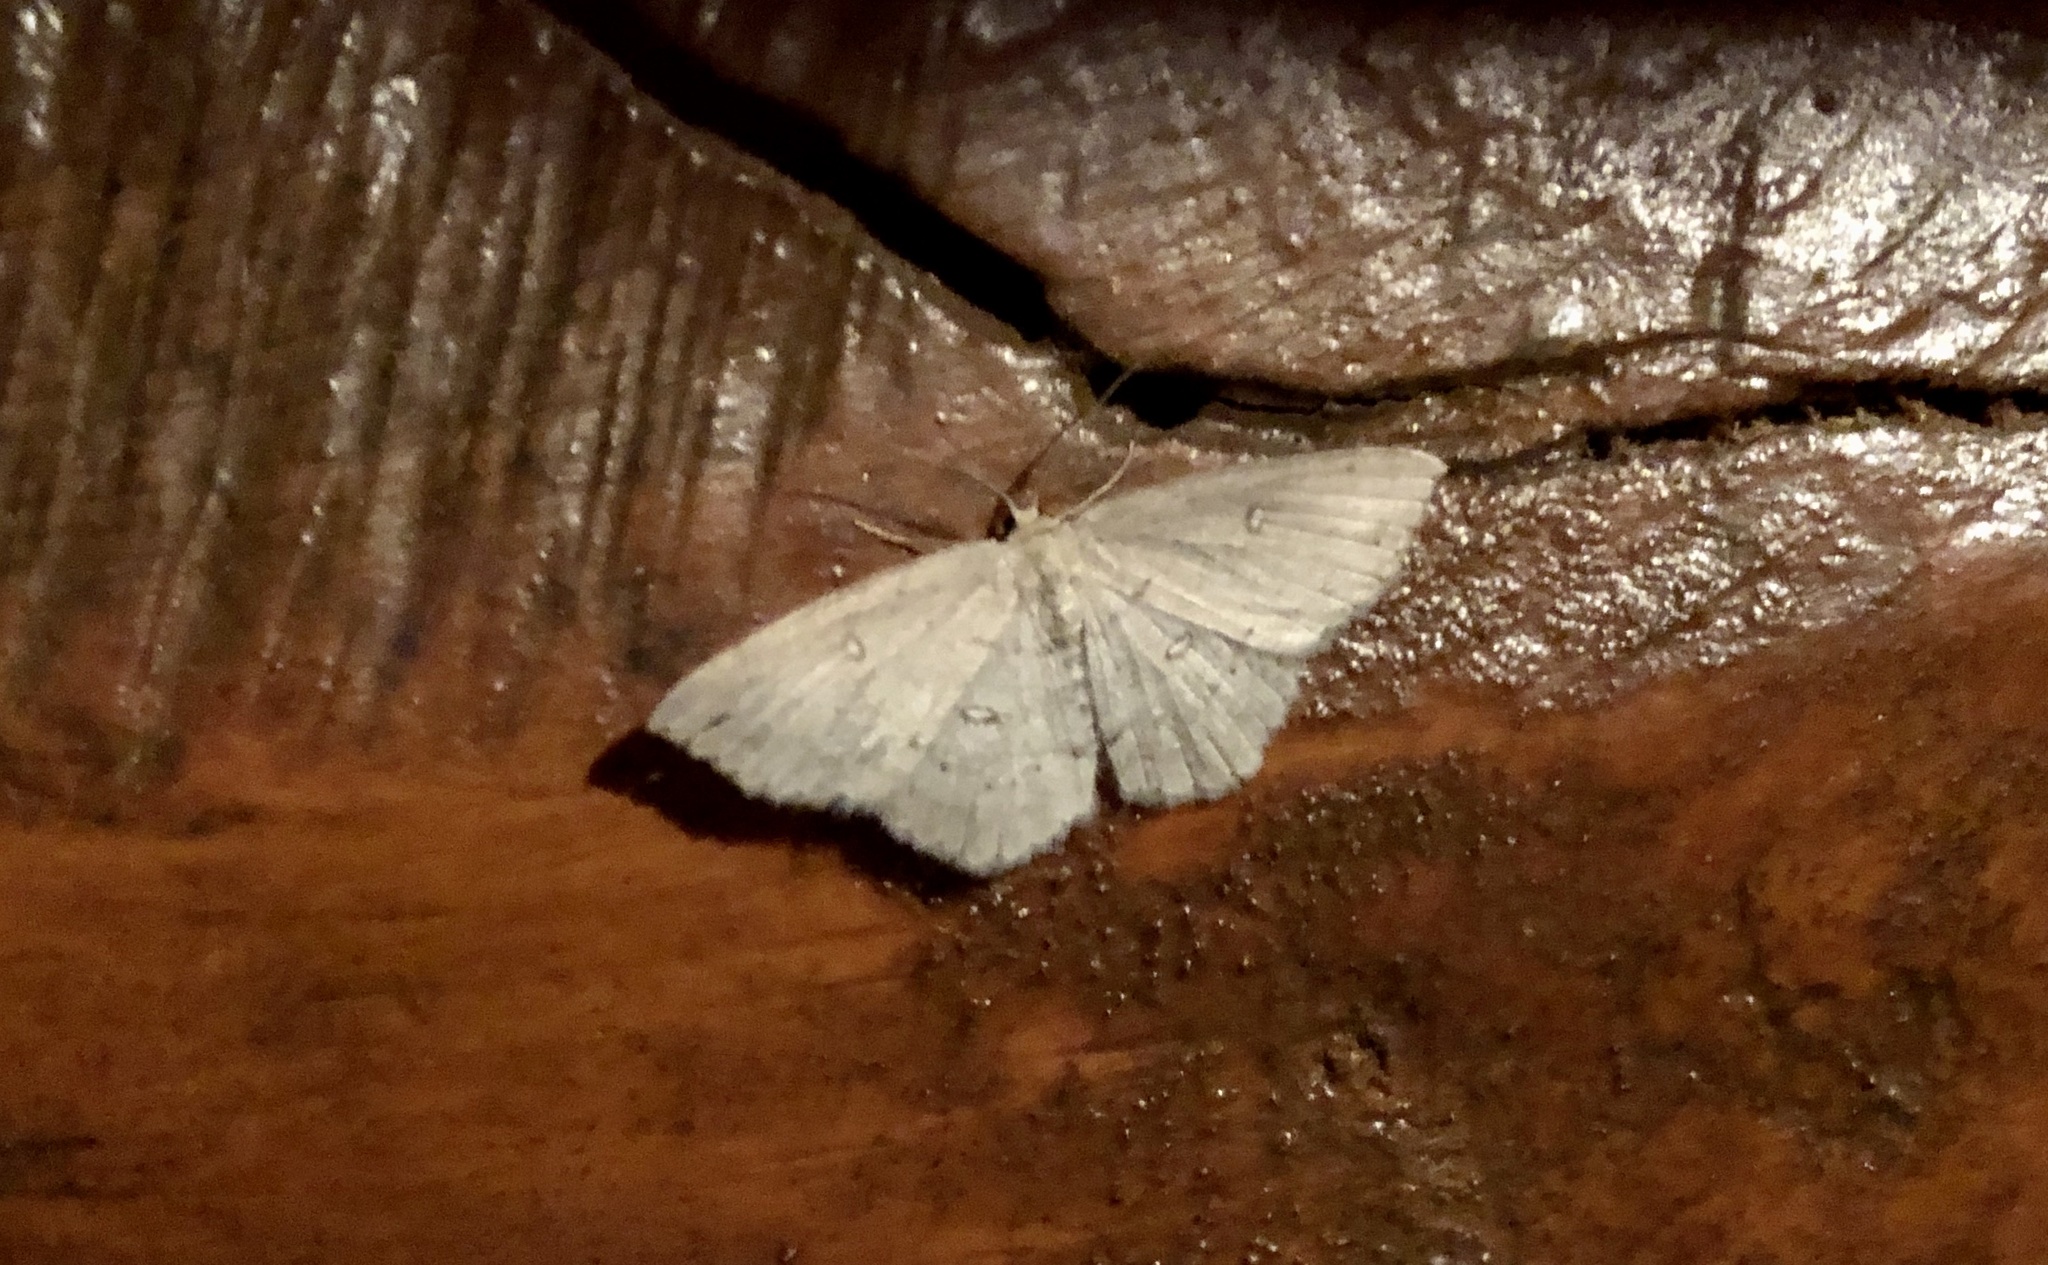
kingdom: Animalia
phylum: Arthropoda
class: Insecta
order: Lepidoptera
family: Geometridae
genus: Cyclophora
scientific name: Cyclophora pendulinaria
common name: Sweet fern geometer
